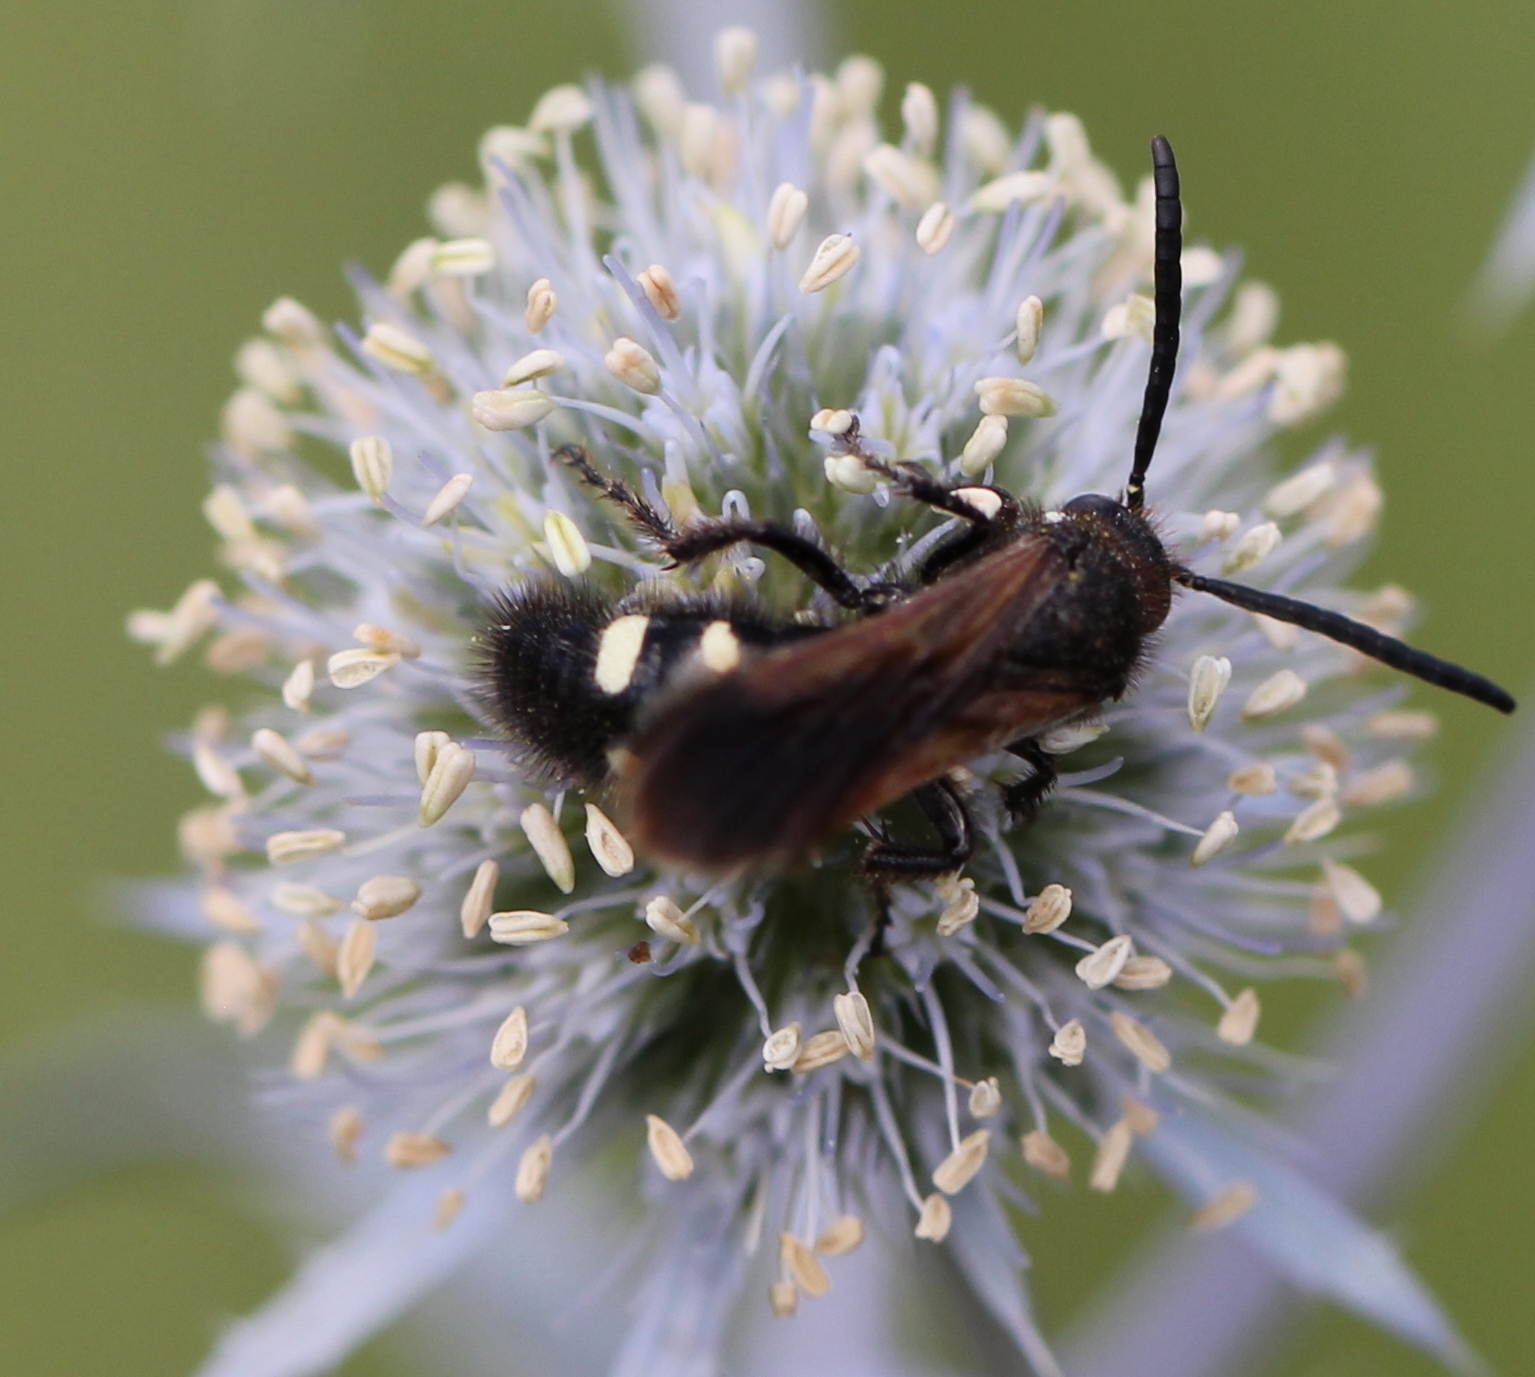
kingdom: Animalia
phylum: Arthropoda
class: Insecta
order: Hymenoptera
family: Vespidae
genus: Vespa
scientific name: Vespa sexmaculata
